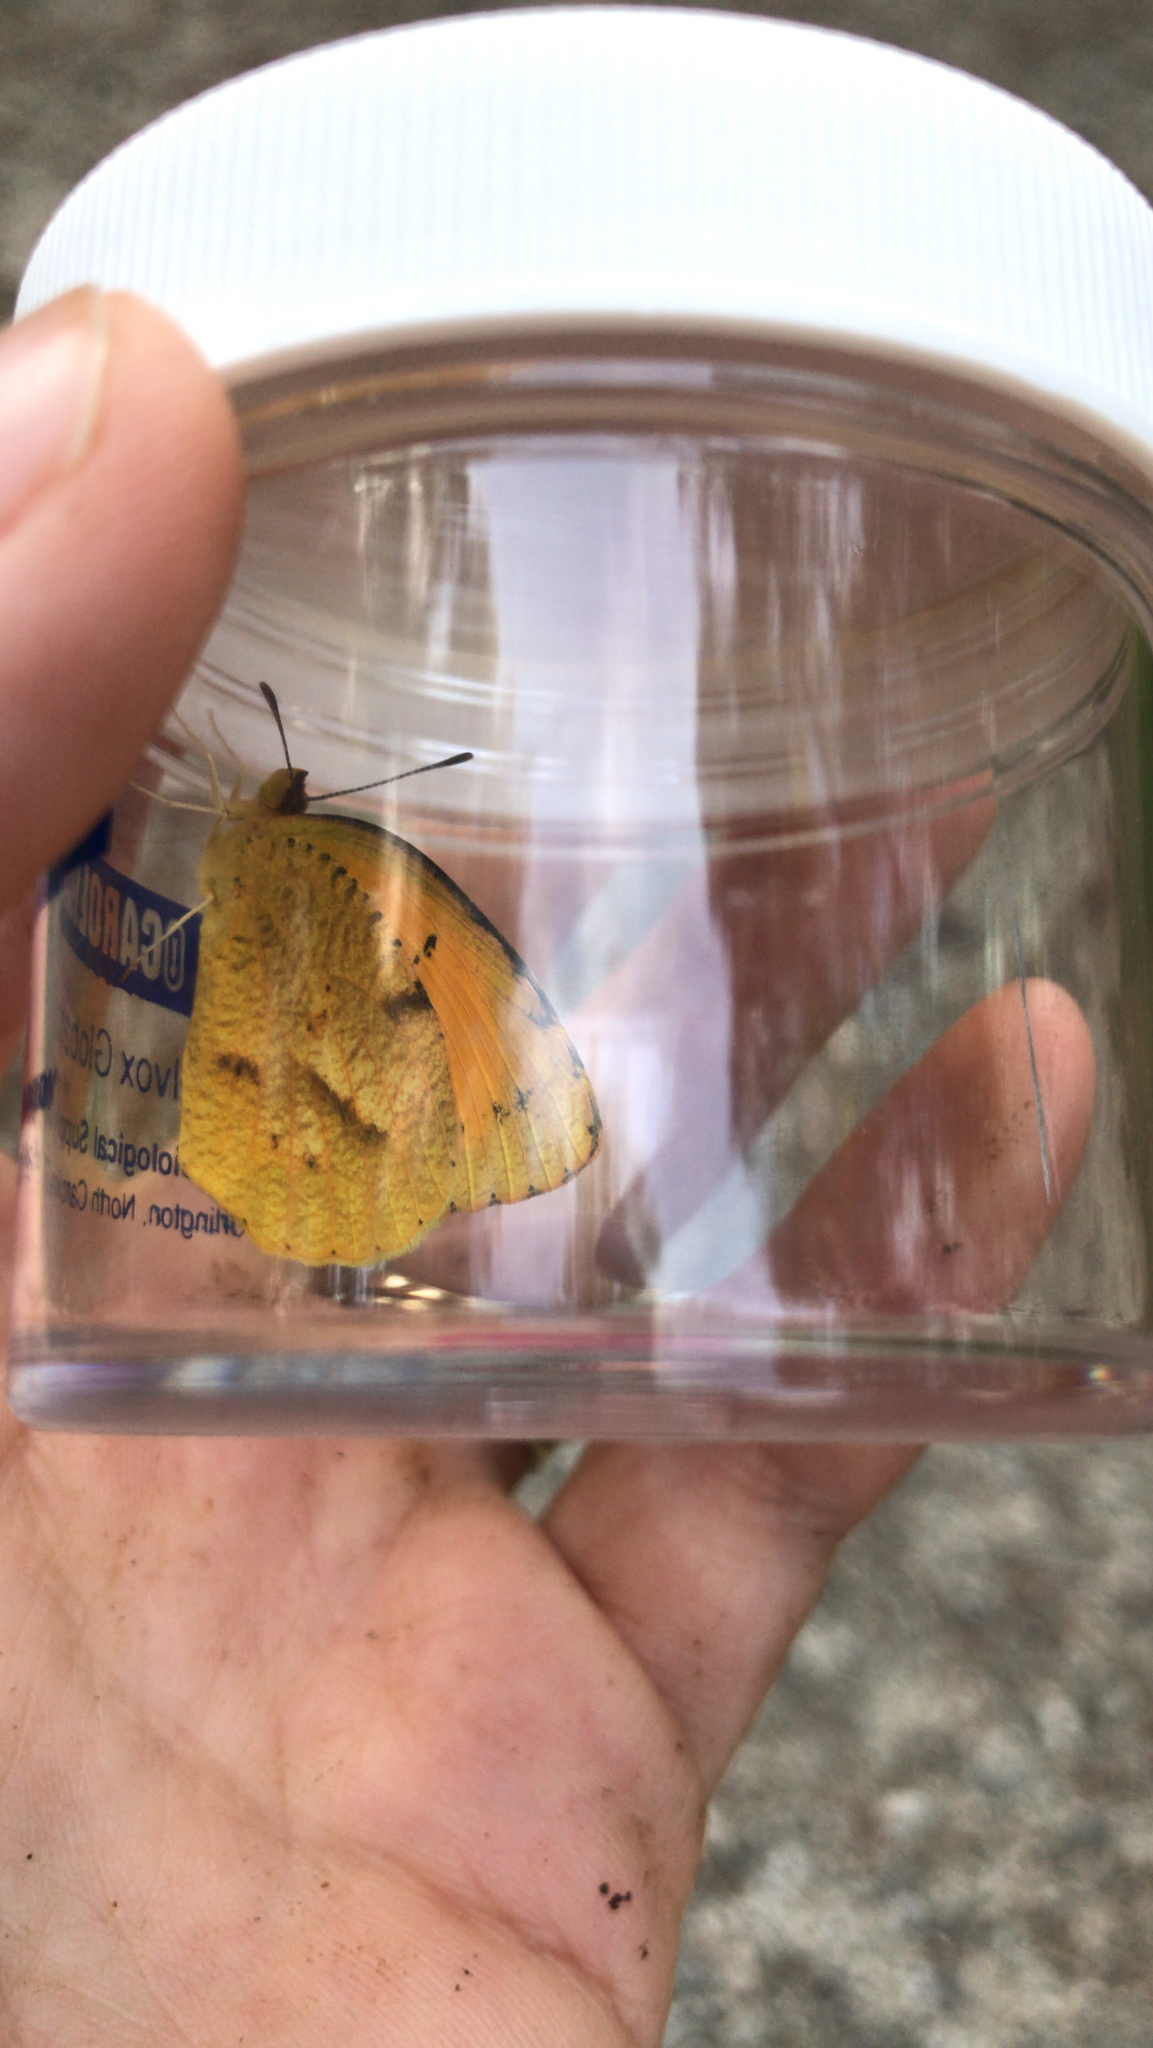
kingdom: Animalia
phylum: Arthropoda
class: Insecta
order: Lepidoptera
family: Pieridae
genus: Abaeis
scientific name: Abaeis nicippe
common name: Sleepy orange
